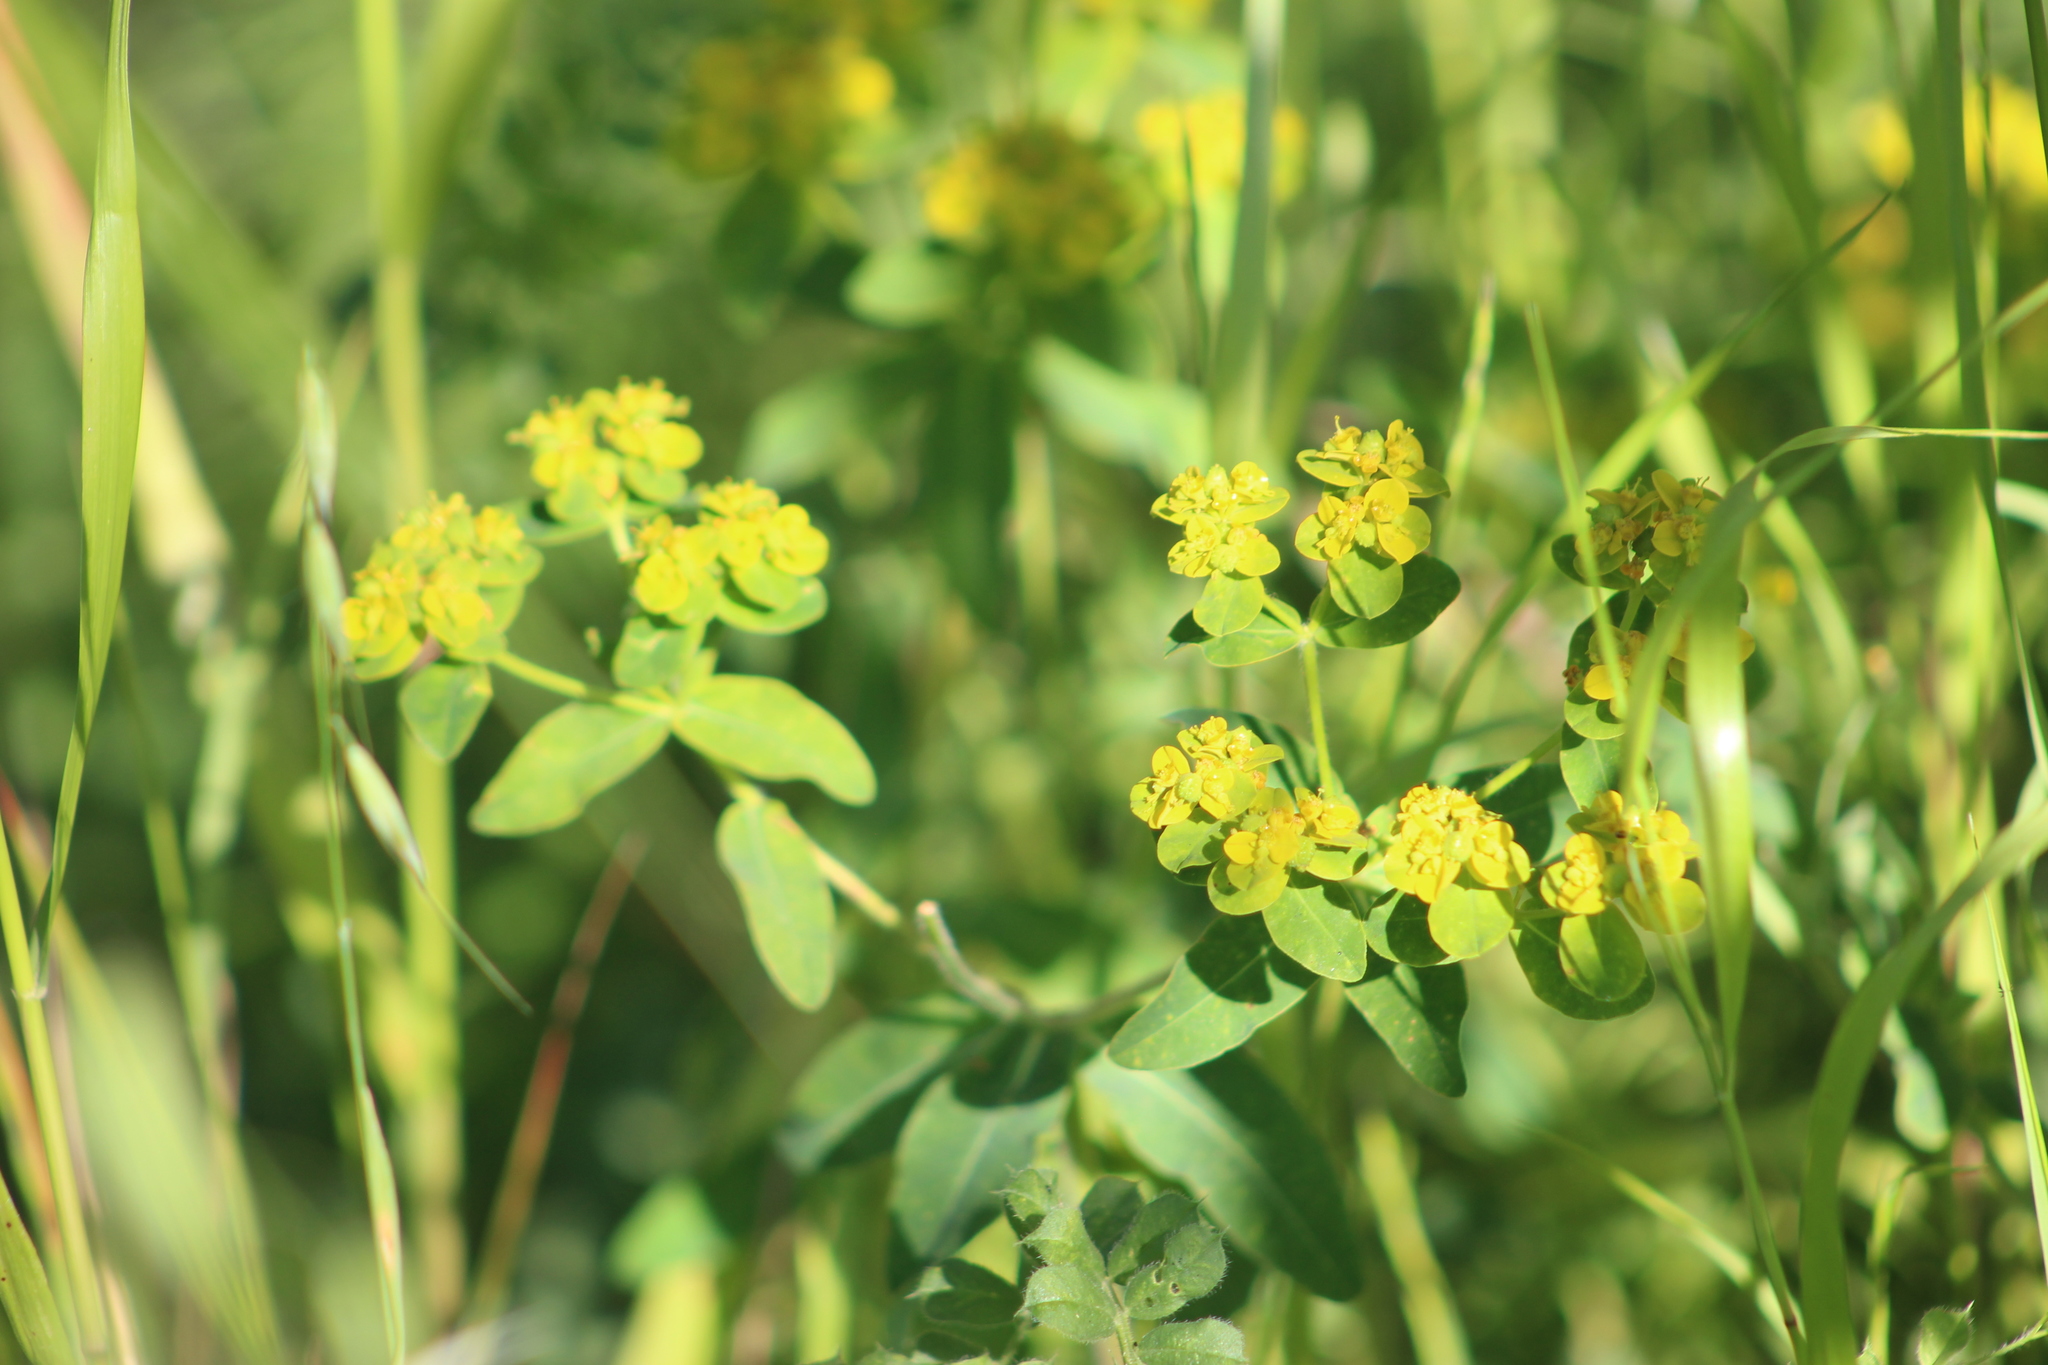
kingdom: Plantae
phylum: Tracheophyta
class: Magnoliopsida
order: Malpighiales
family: Euphorbiaceae
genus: Euphorbia
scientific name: Euphorbia oblongata
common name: Balkan spurge
